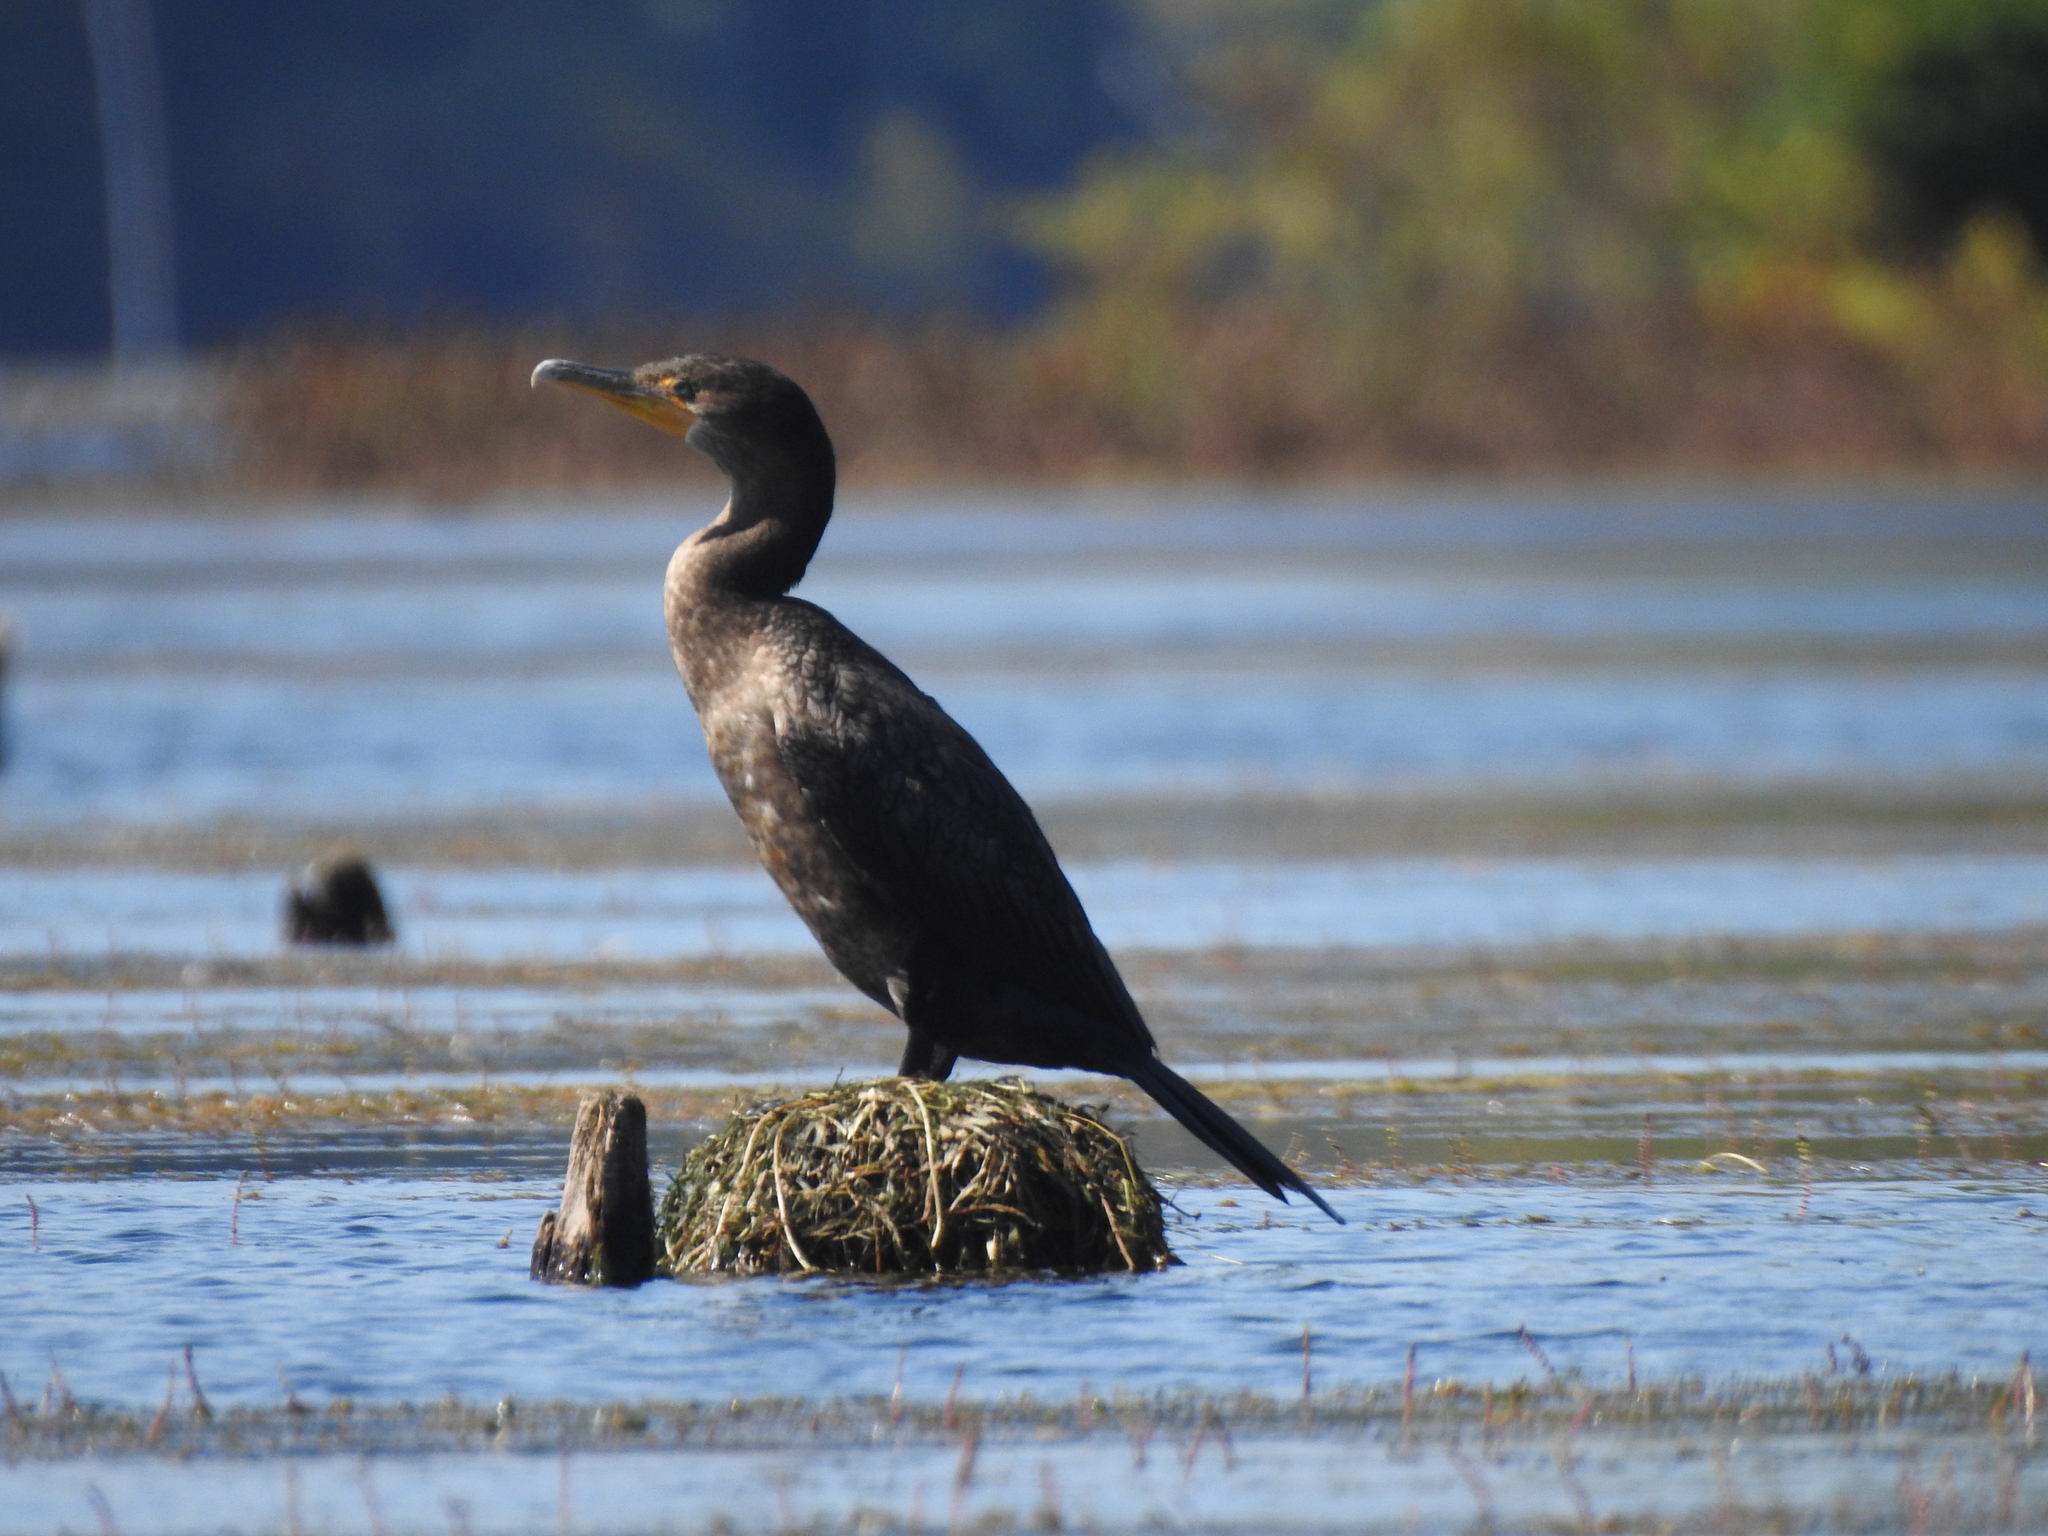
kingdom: Animalia
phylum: Chordata
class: Aves
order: Suliformes
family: Phalacrocoracidae
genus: Phalacrocorax
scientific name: Phalacrocorax auritus
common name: Double-crested cormorant
